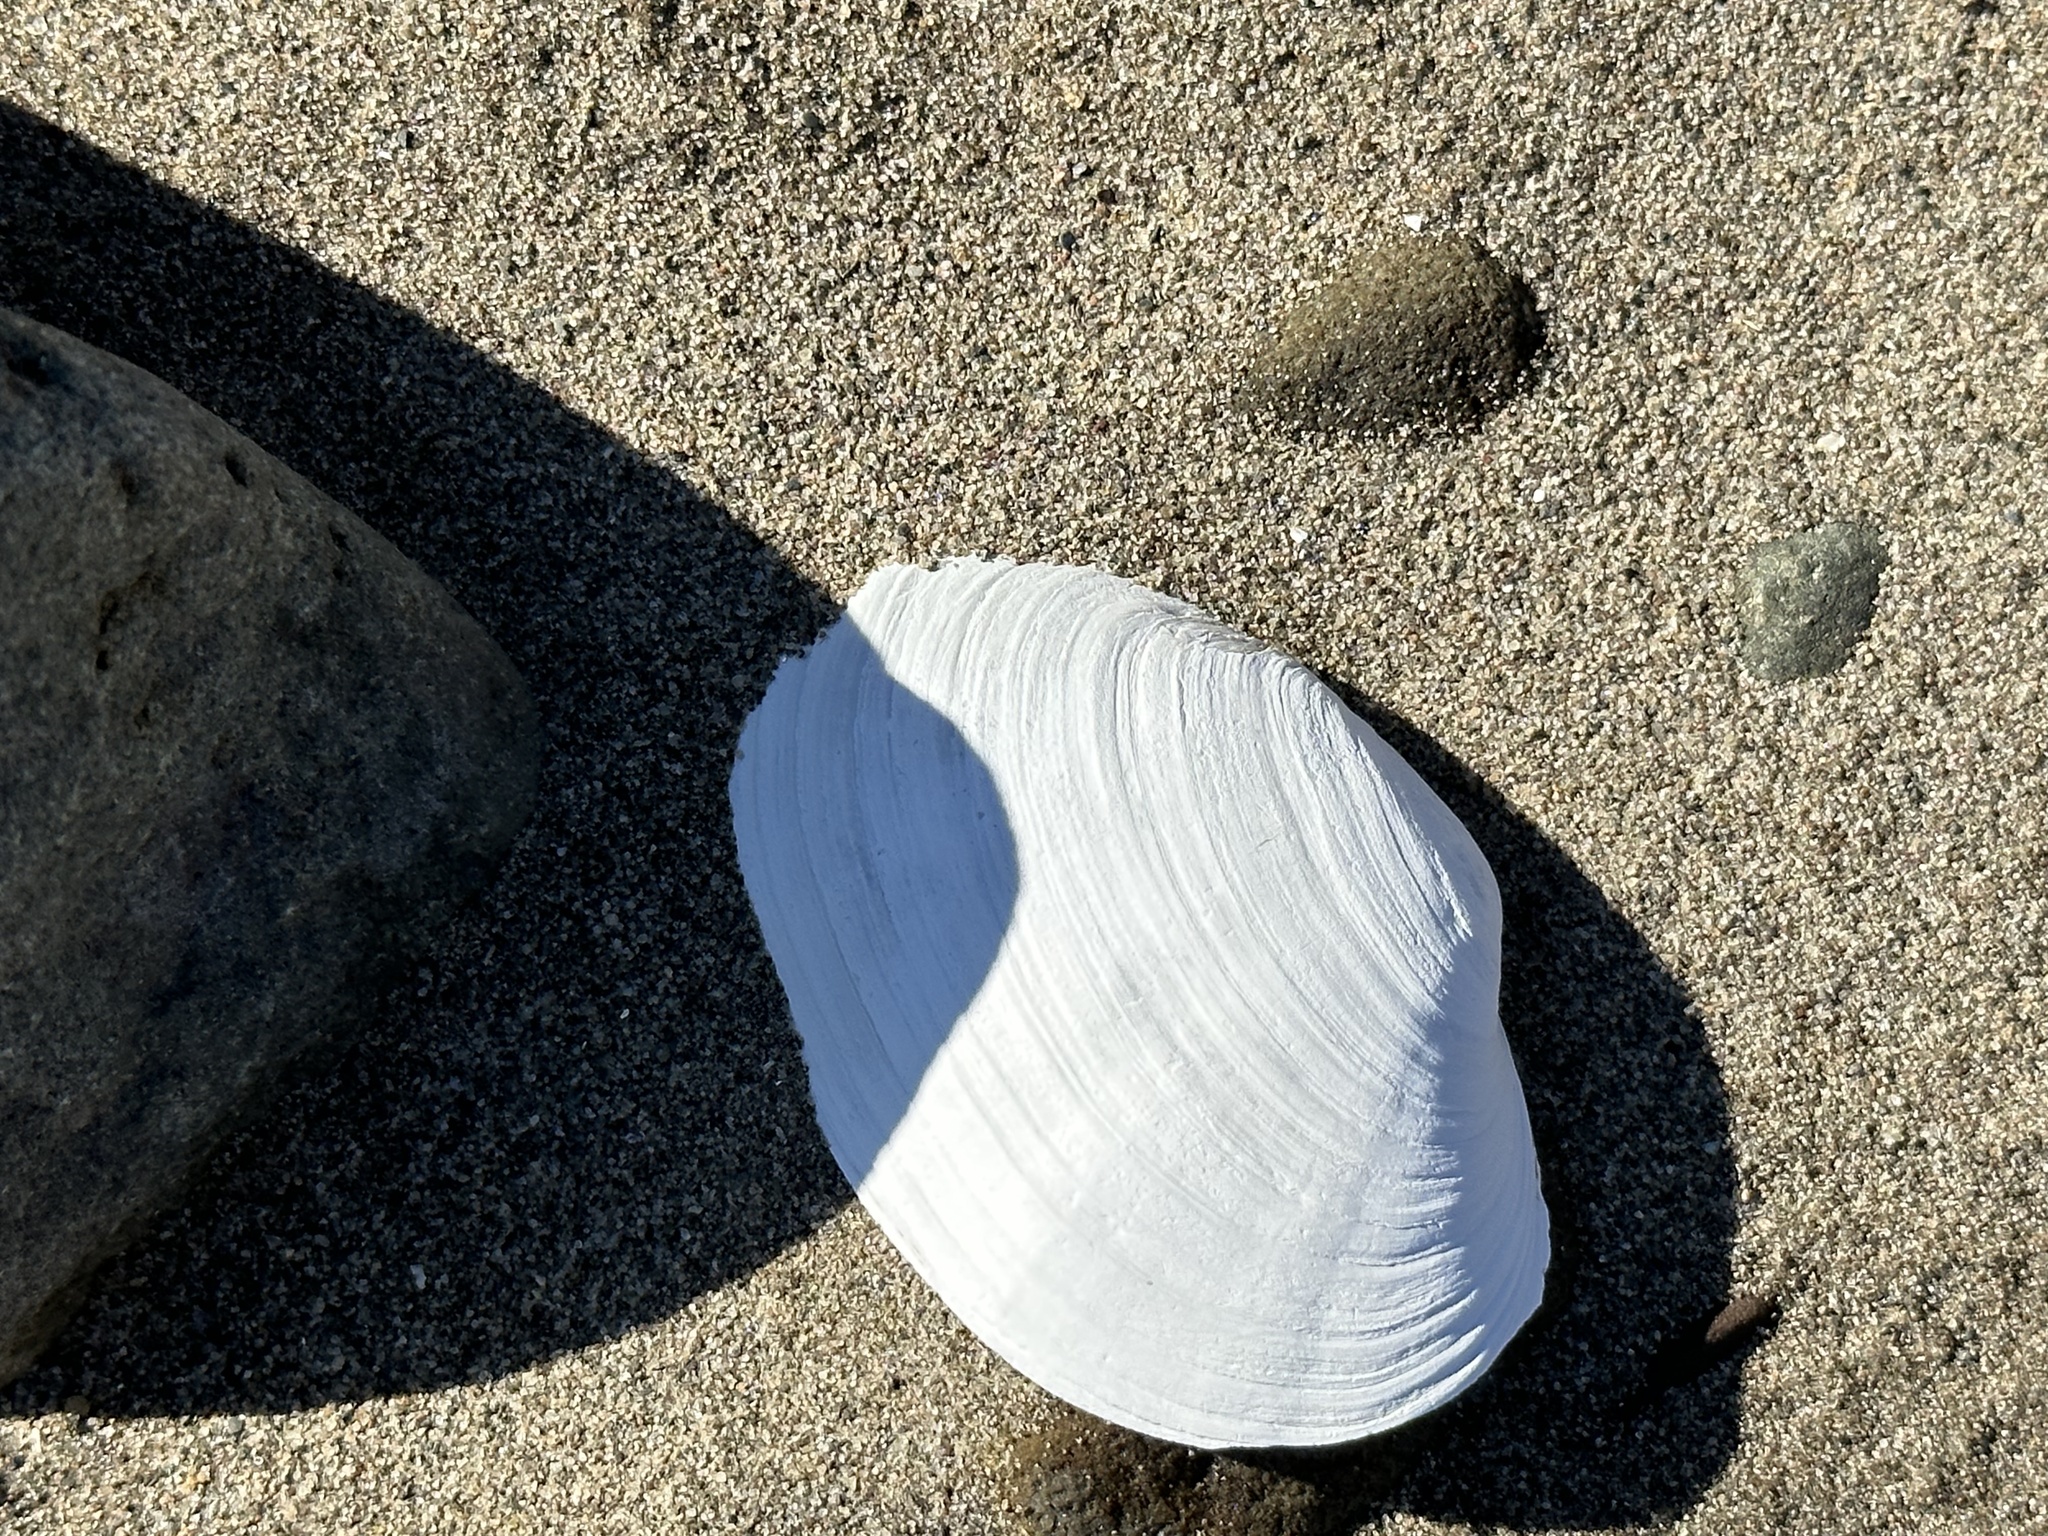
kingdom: Animalia
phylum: Mollusca
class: Bivalvia
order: Myida
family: Myidae
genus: Mya
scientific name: Mya arenaria
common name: Soft-shelled clam
